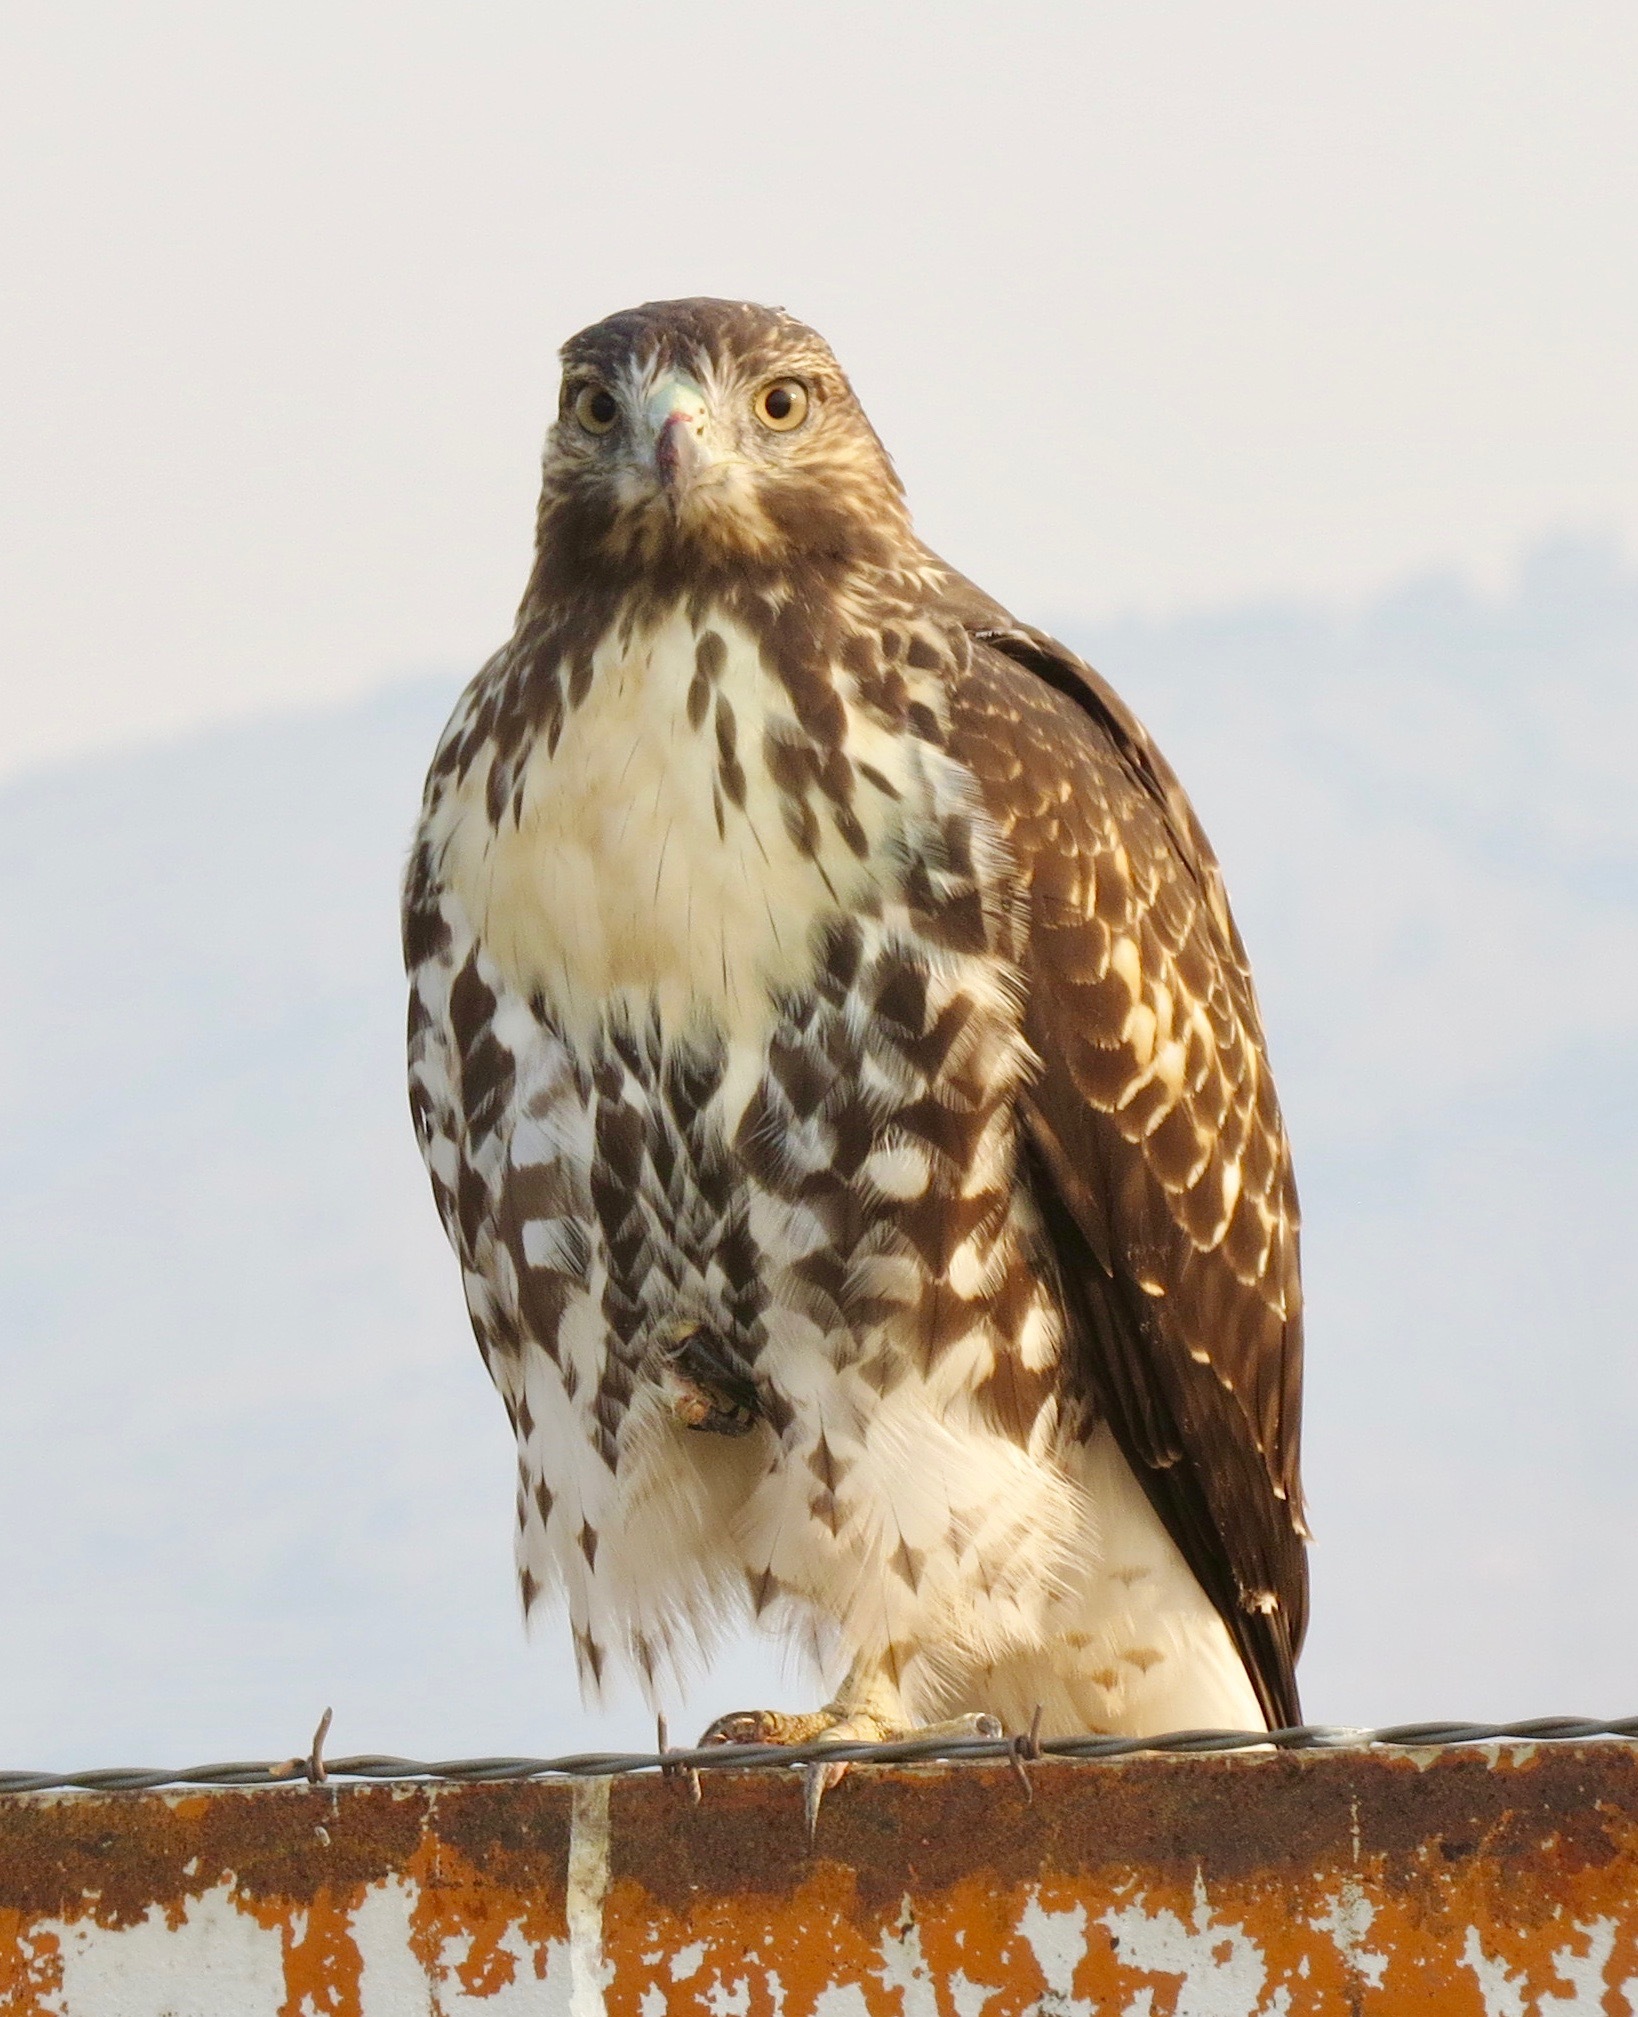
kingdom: Animalia
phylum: Chordata
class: Aves
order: Accipitriformes
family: Accipitridae
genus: Buteo
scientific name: Buteo jamaicensis
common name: Red-tailed hawk
